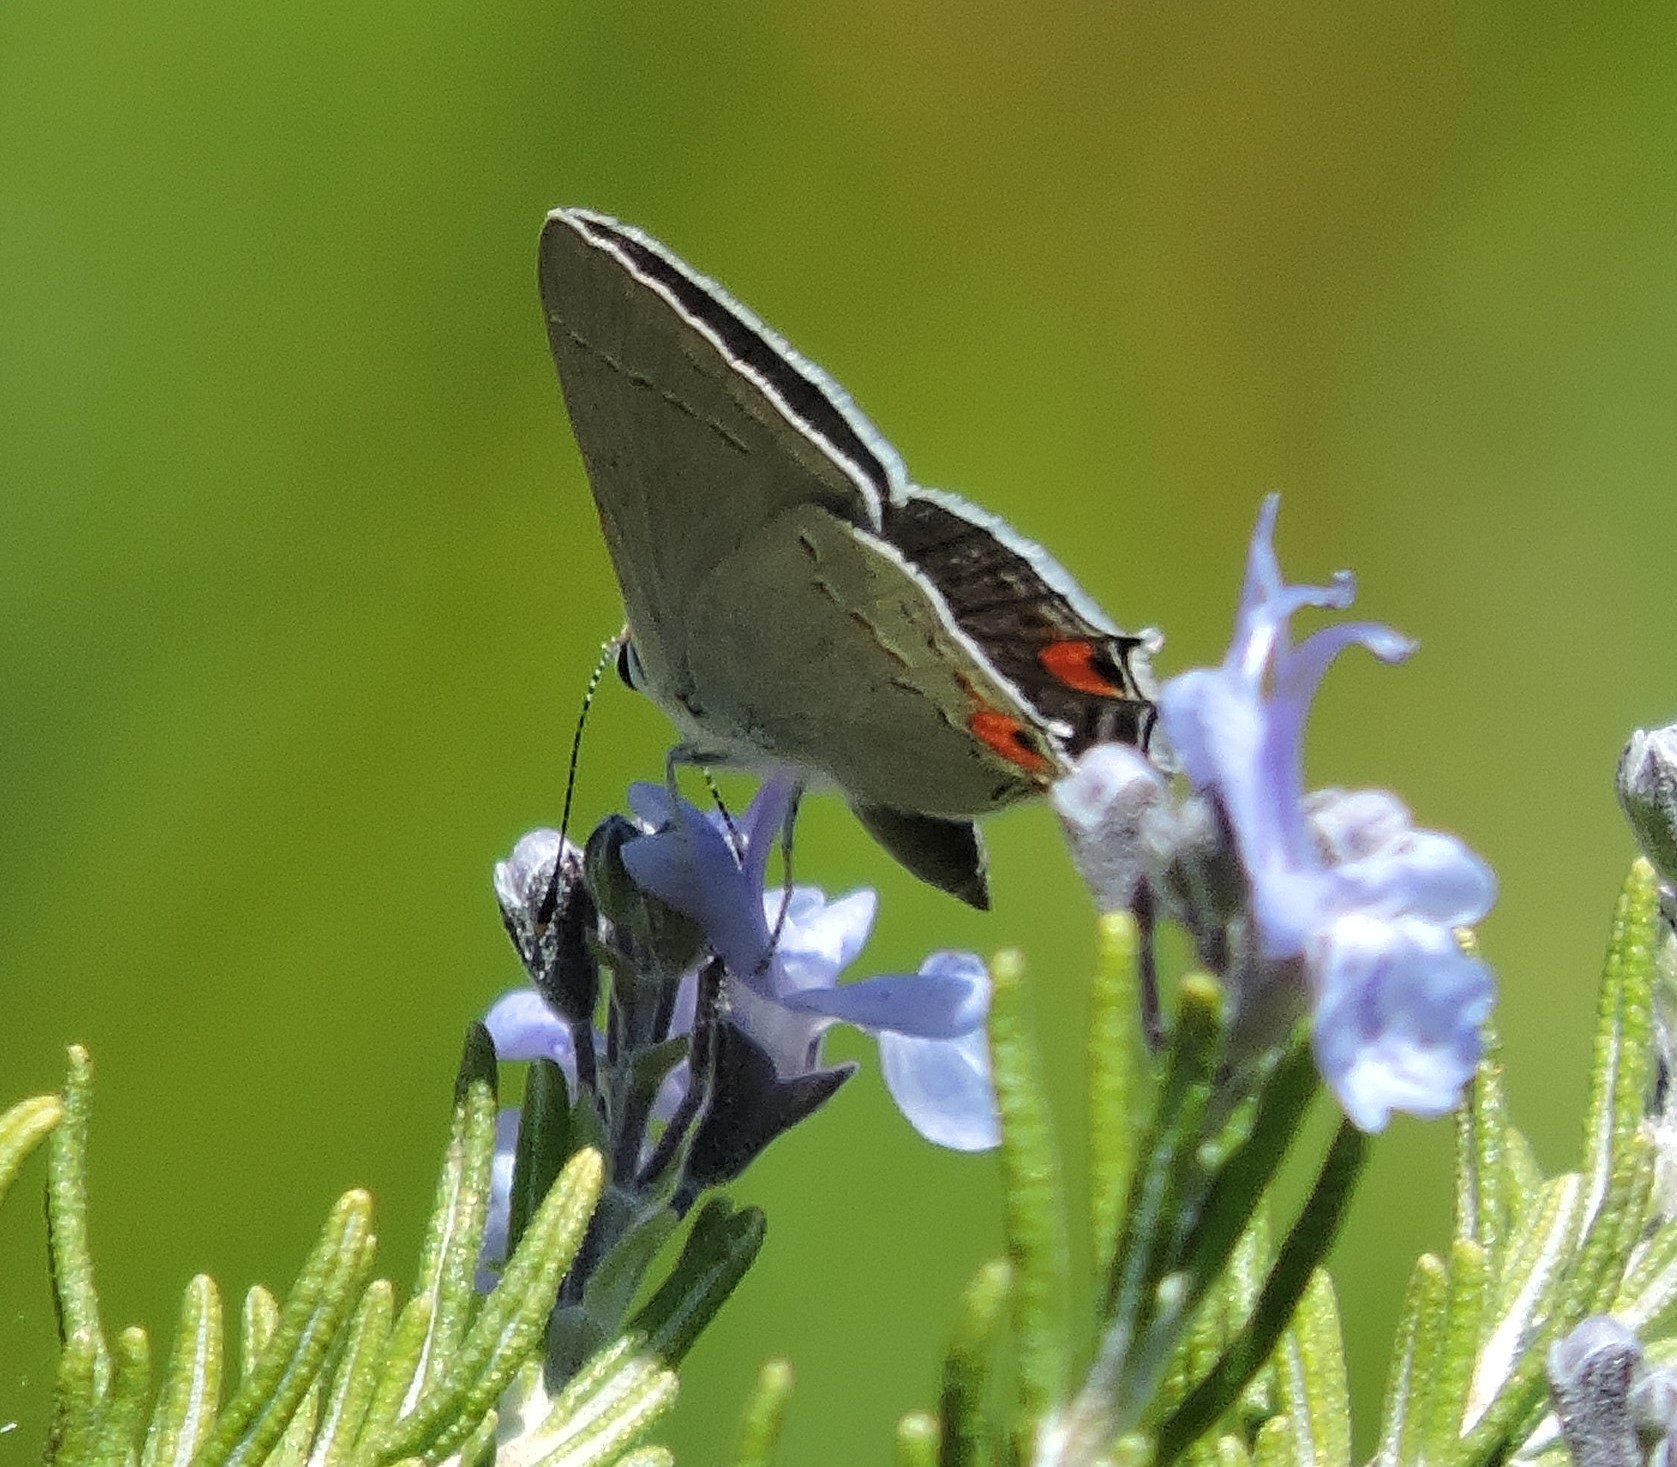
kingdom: Animalia
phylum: Arthropoda
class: Insecta
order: Lepidoptera
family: Lycaenidae
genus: Strymon
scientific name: Strymon melinus
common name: Gray hairstreak
